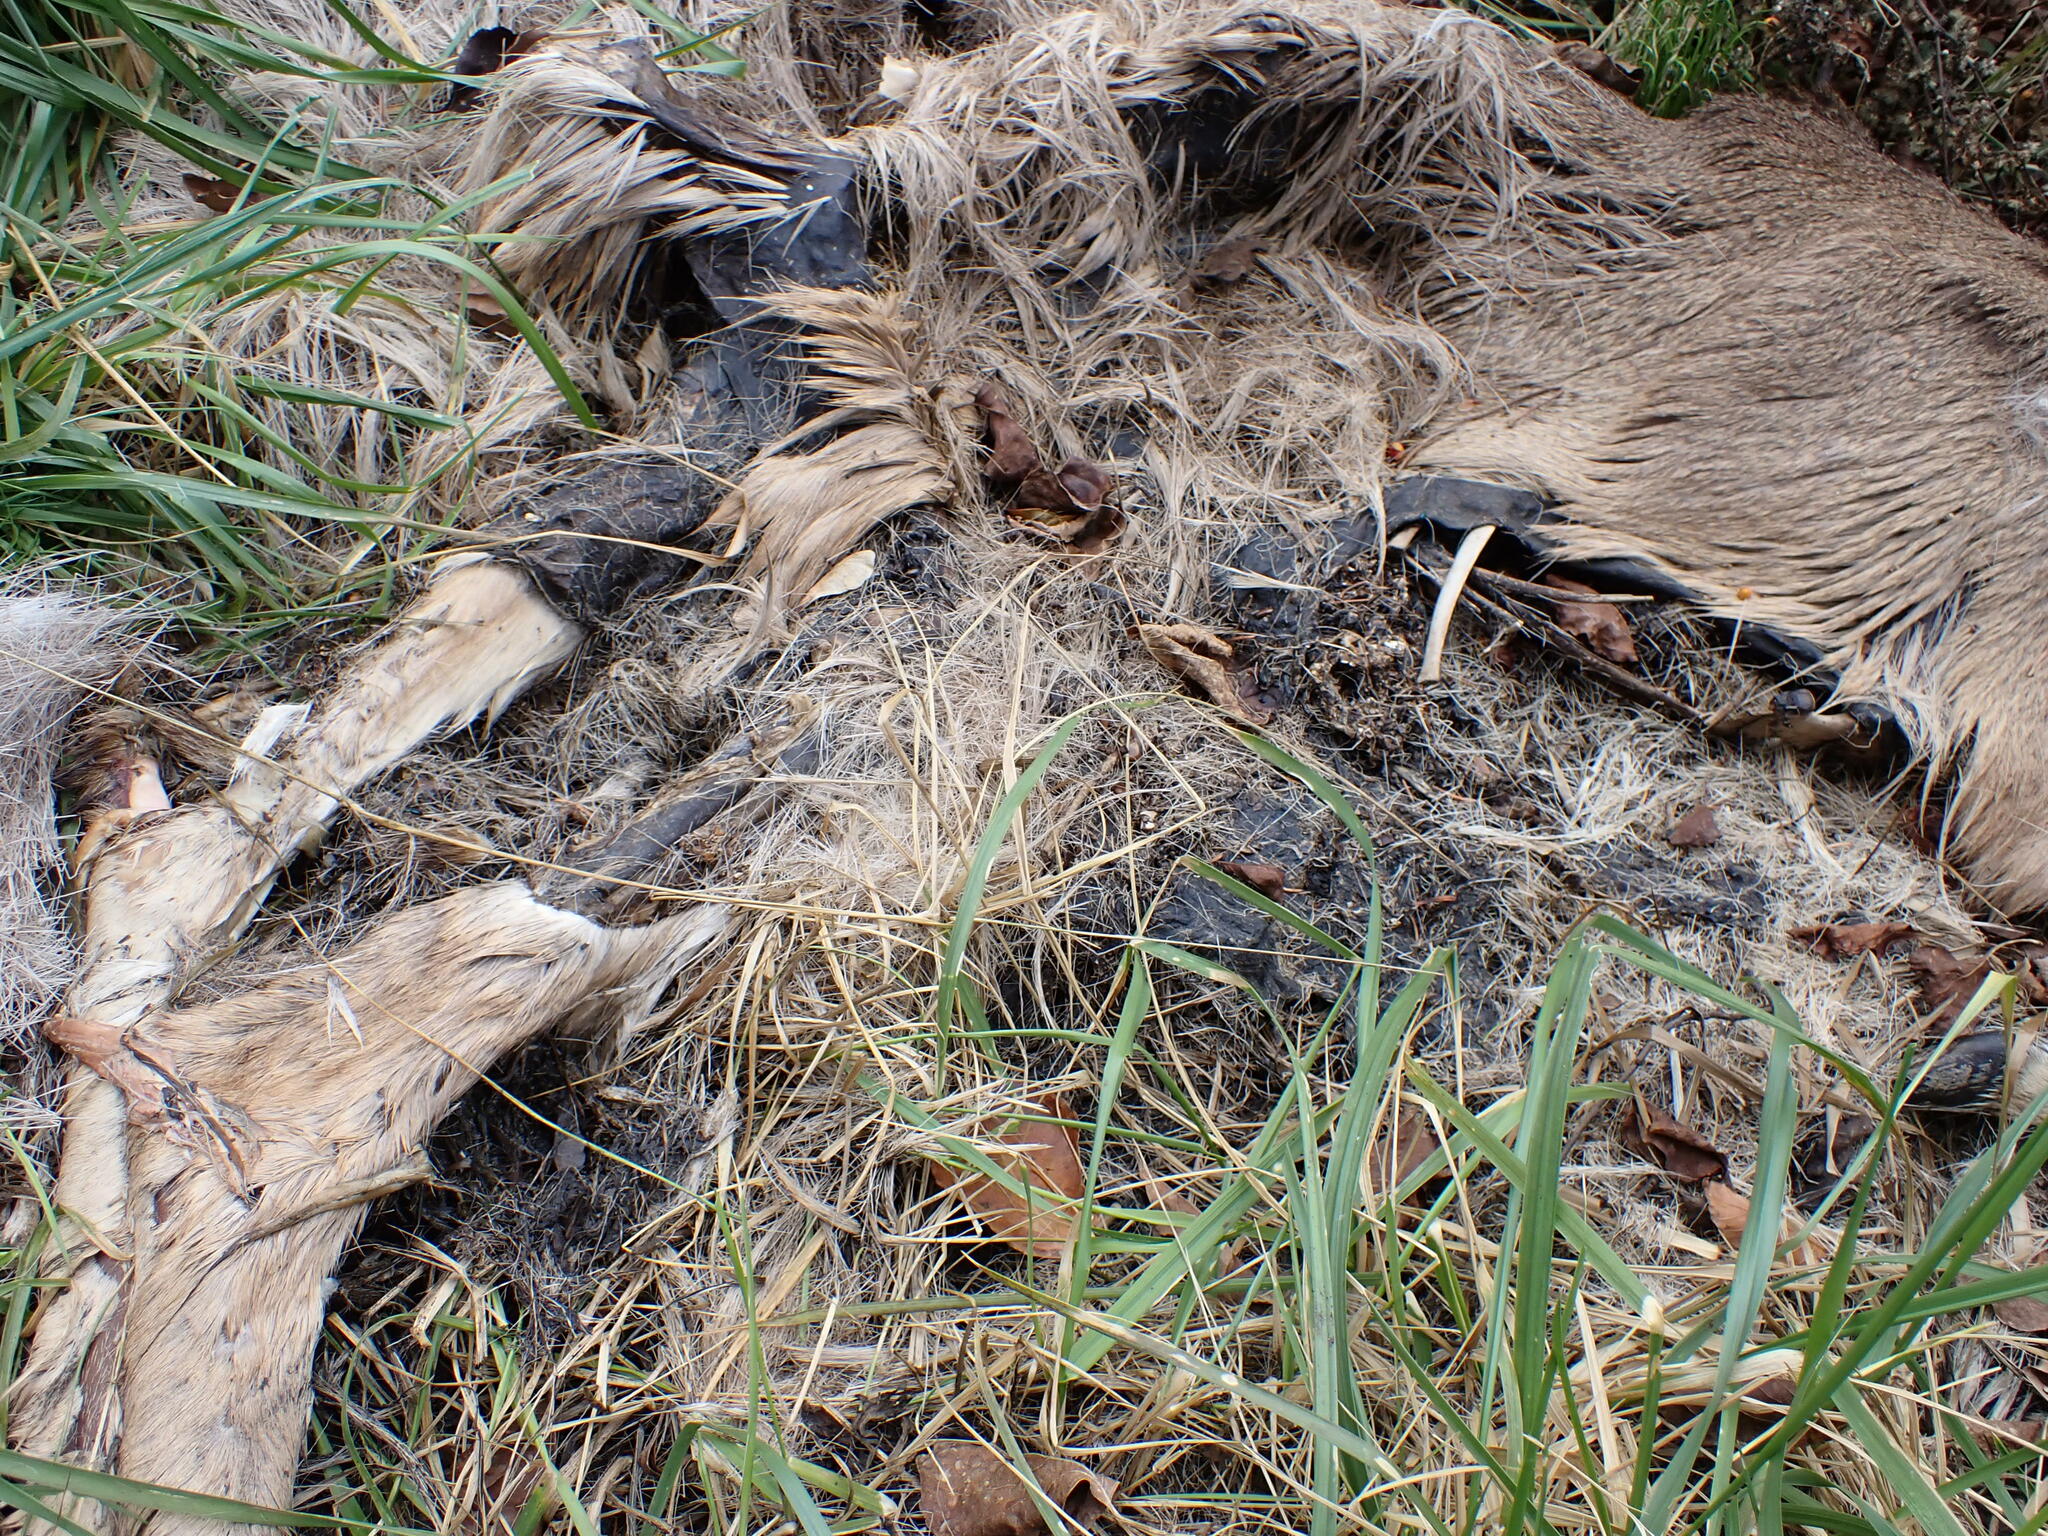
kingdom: Animalia
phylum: Chordata
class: Mammalia
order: Artiodactyla
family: Cervidae
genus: Odocoileus
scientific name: Odocoileus virginianus
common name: White-tailed deer
